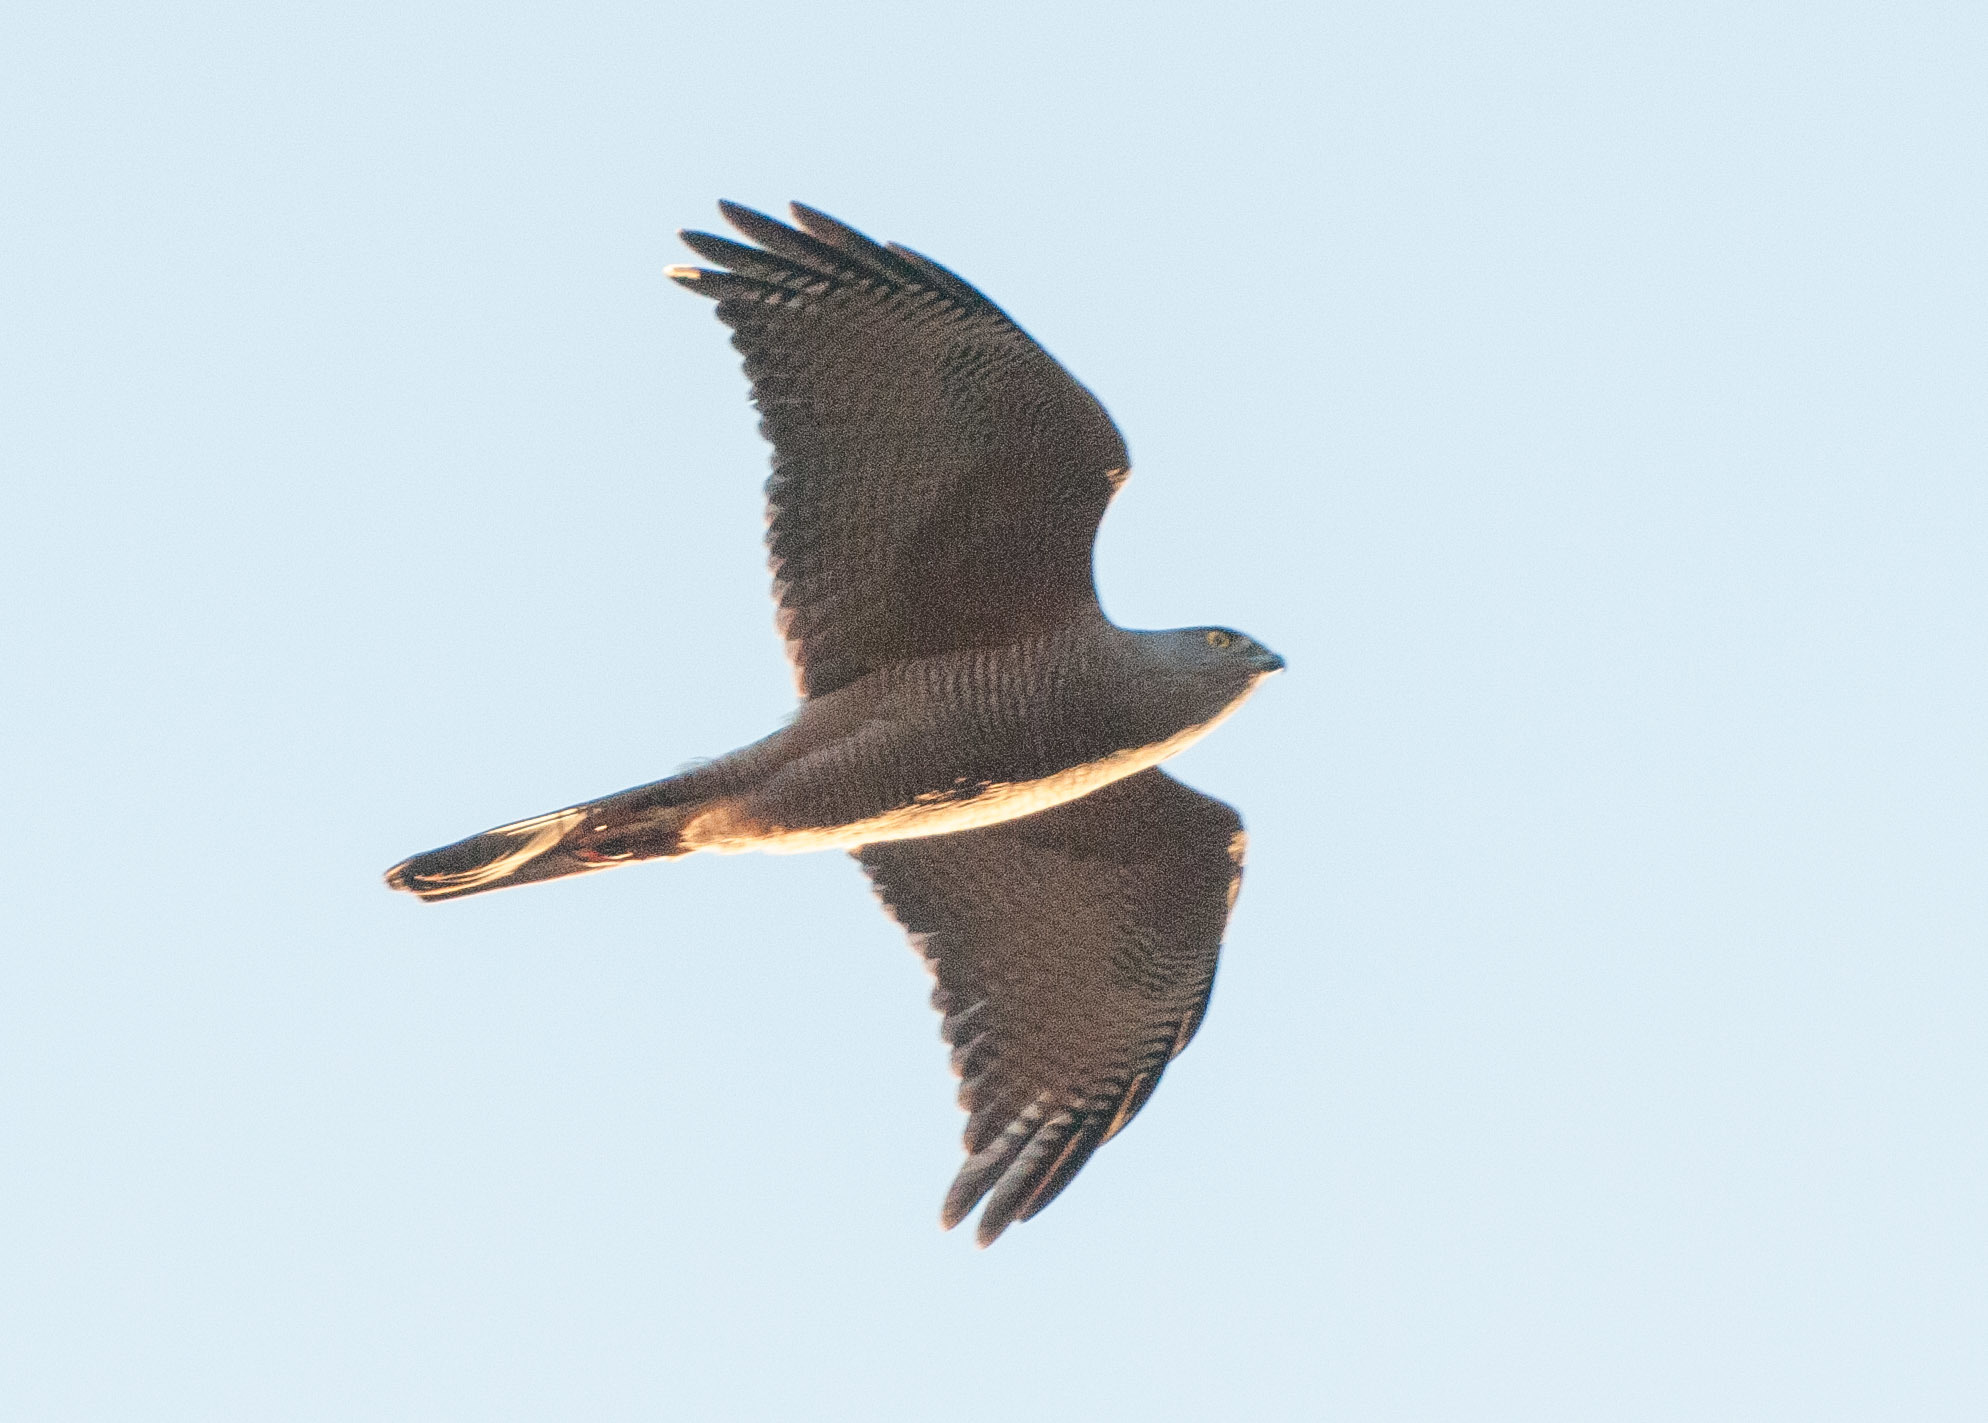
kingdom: Animalia
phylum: Chordata
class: Aves
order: Accipitriformes
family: Accipitridae
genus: Accipiter
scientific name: Accipiter cirrocephalus
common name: Collared sparrowhawk
